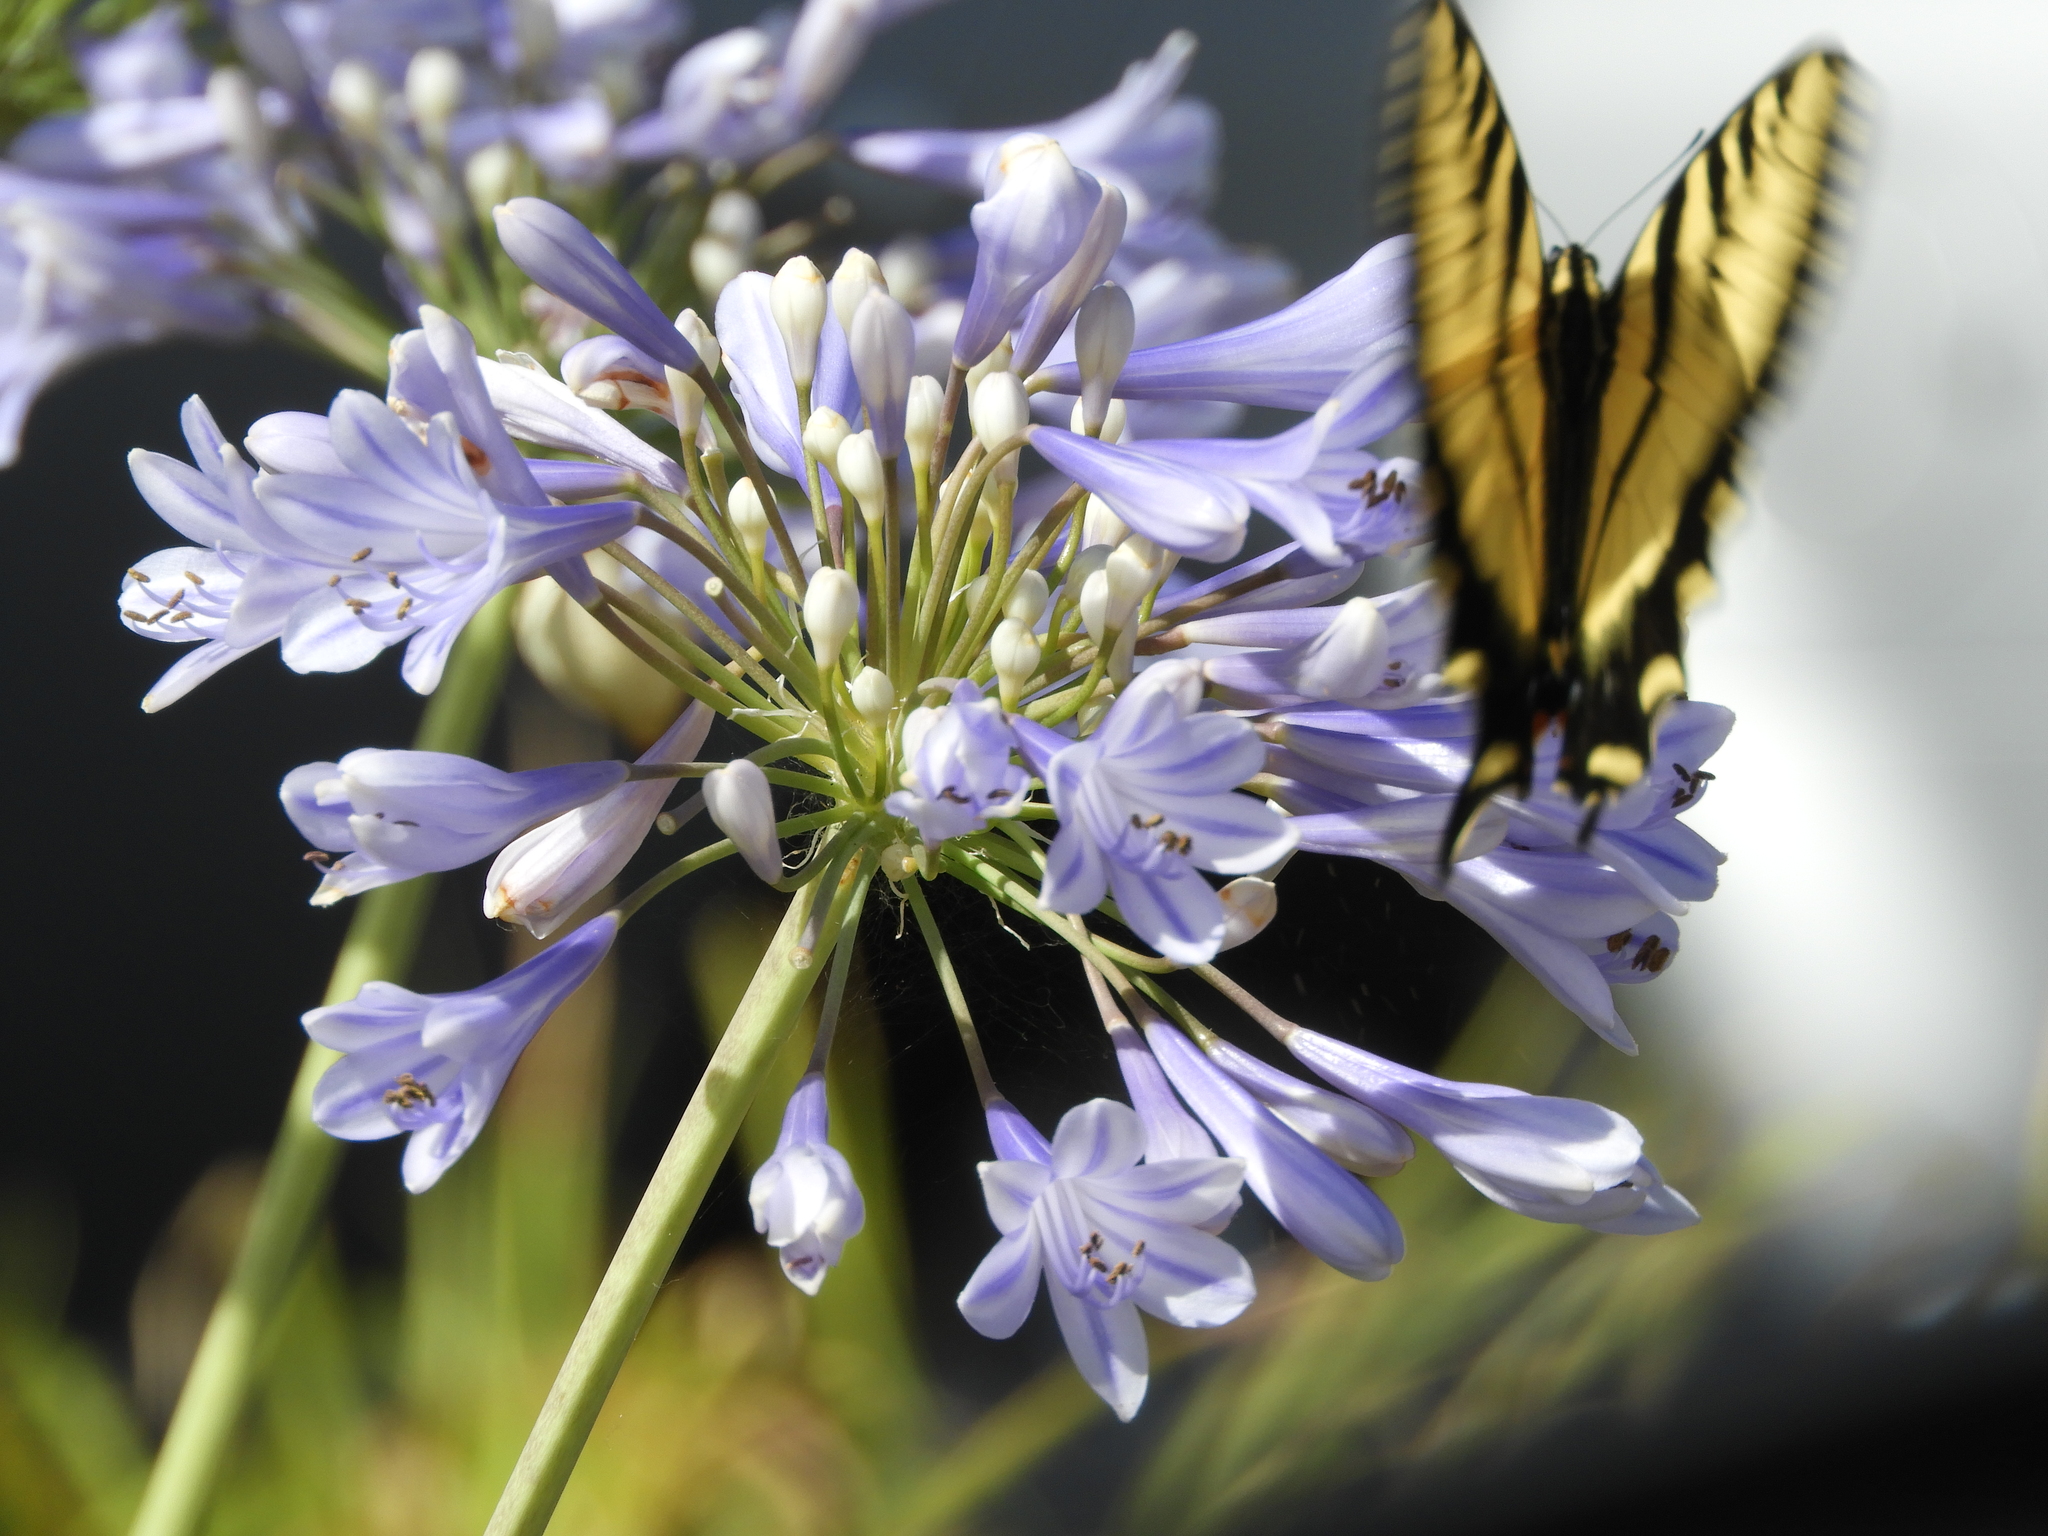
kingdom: Animalia
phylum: Arthropoda
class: Insecta
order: Lepidoptera
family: Papilionidae
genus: Papilio
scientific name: Papilio rutulus
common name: Western tiger swallowtail
